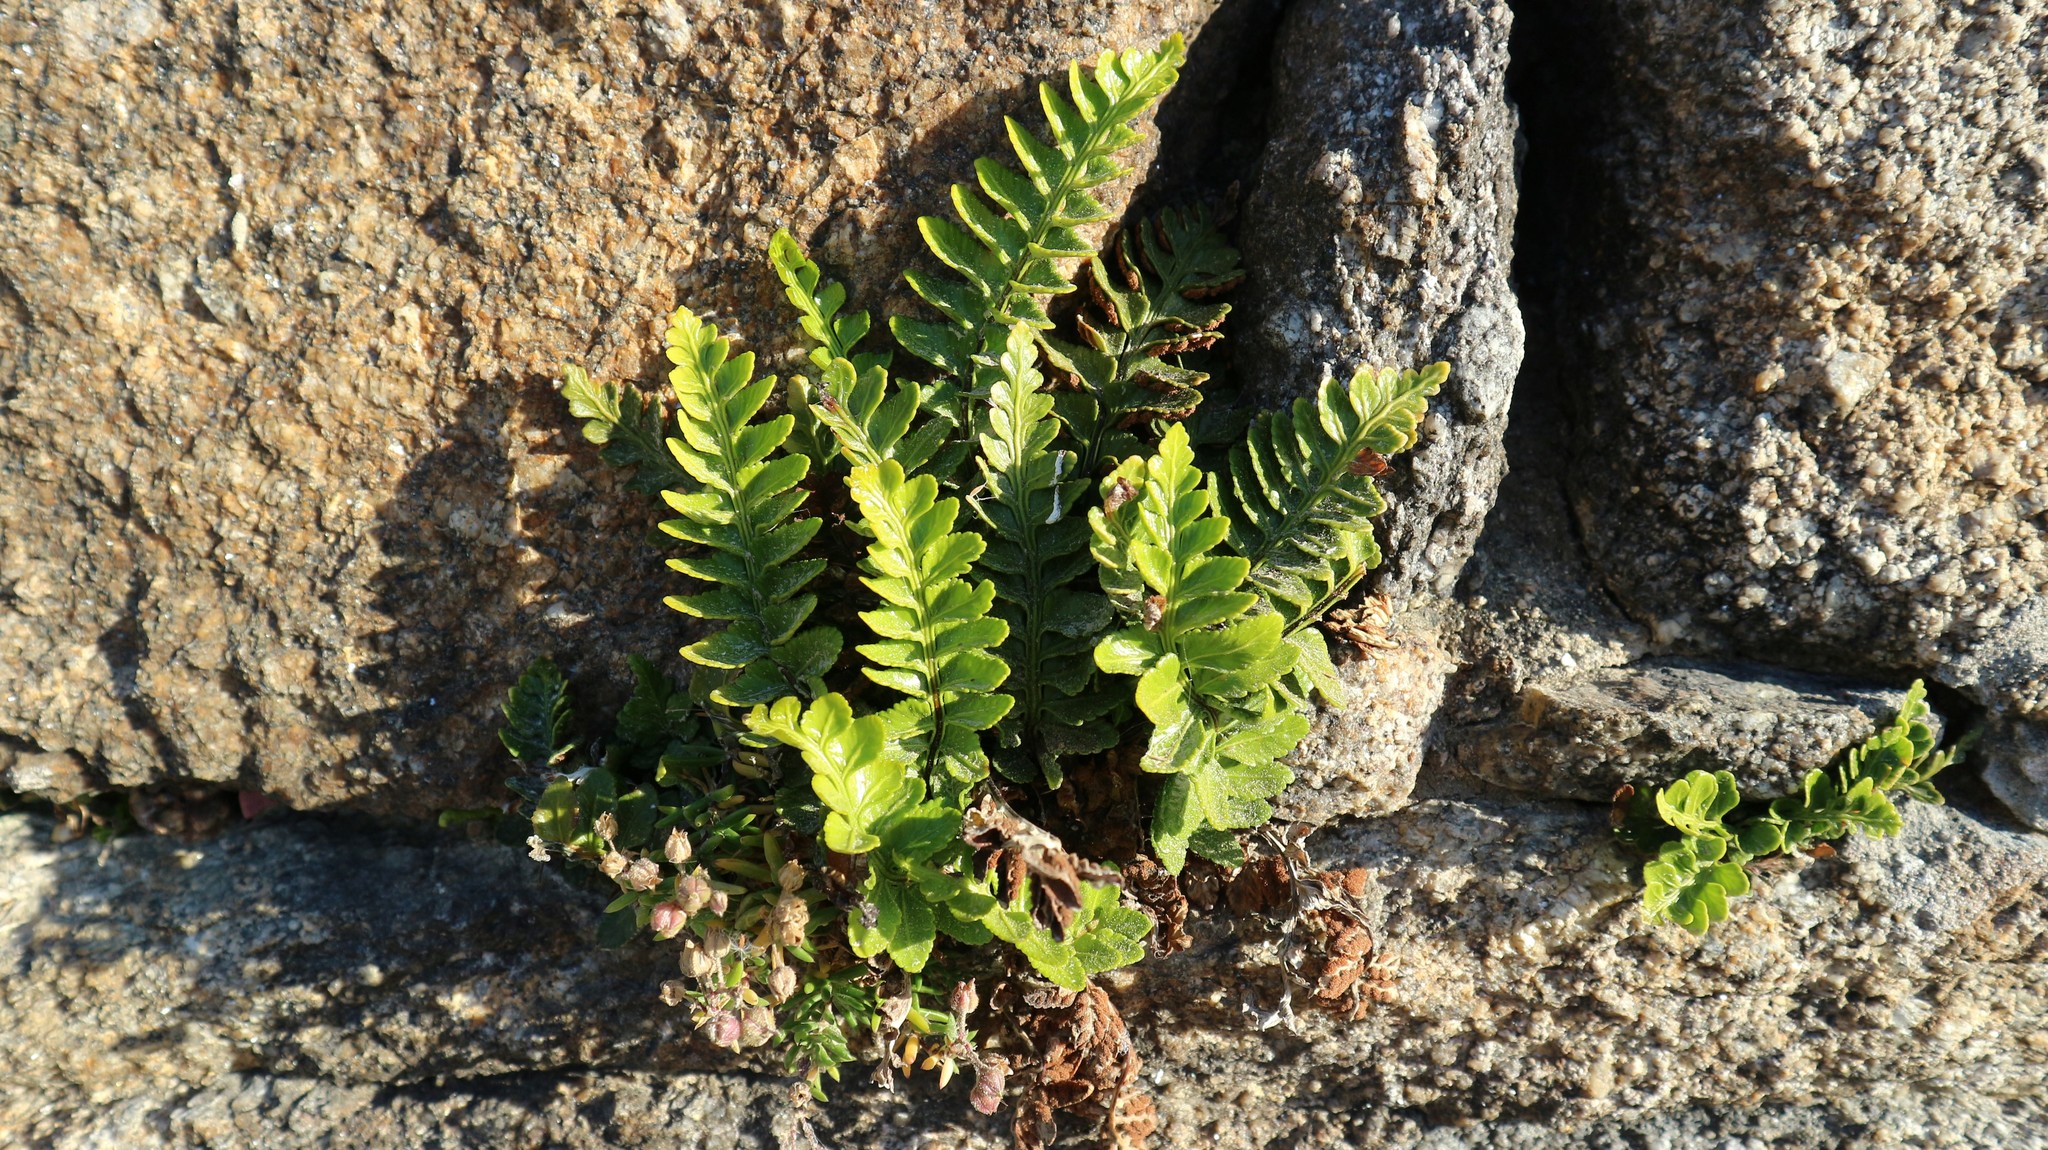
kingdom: Plantae
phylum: Tracheophyta
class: Polypodiopsida
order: Polypodiales
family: Aspleniaceae
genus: Asplenium
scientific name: Asplenium marinum
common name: Sea spleenwort
